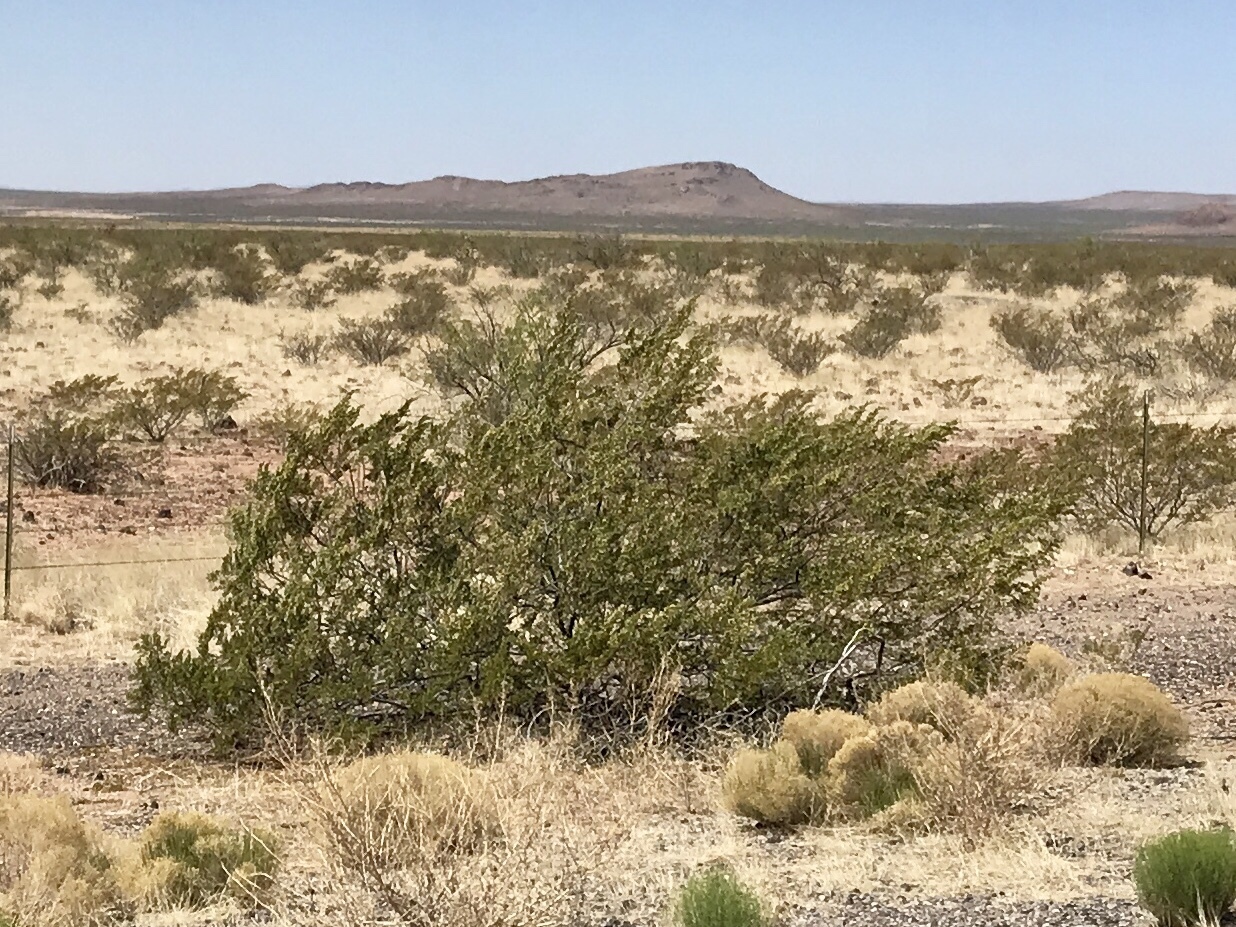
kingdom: Plantae
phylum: Tracheophyta
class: Magnoliopsida
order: Zygophyllales
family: Zygophyllaceae
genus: Larrea
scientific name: Larrea tridentata
